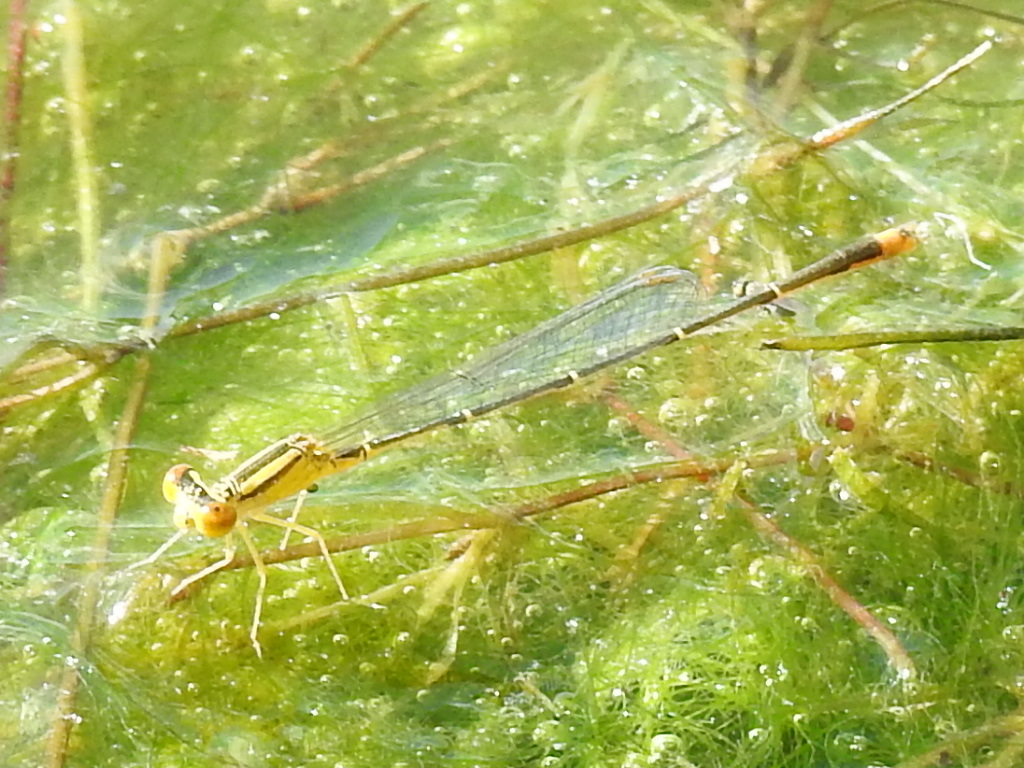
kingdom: Animalia
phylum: Arthropoda
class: Insecta
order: Odonata
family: Coenagrionidae
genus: Enallagma
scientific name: Enallagma signatum
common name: Orange bluet
